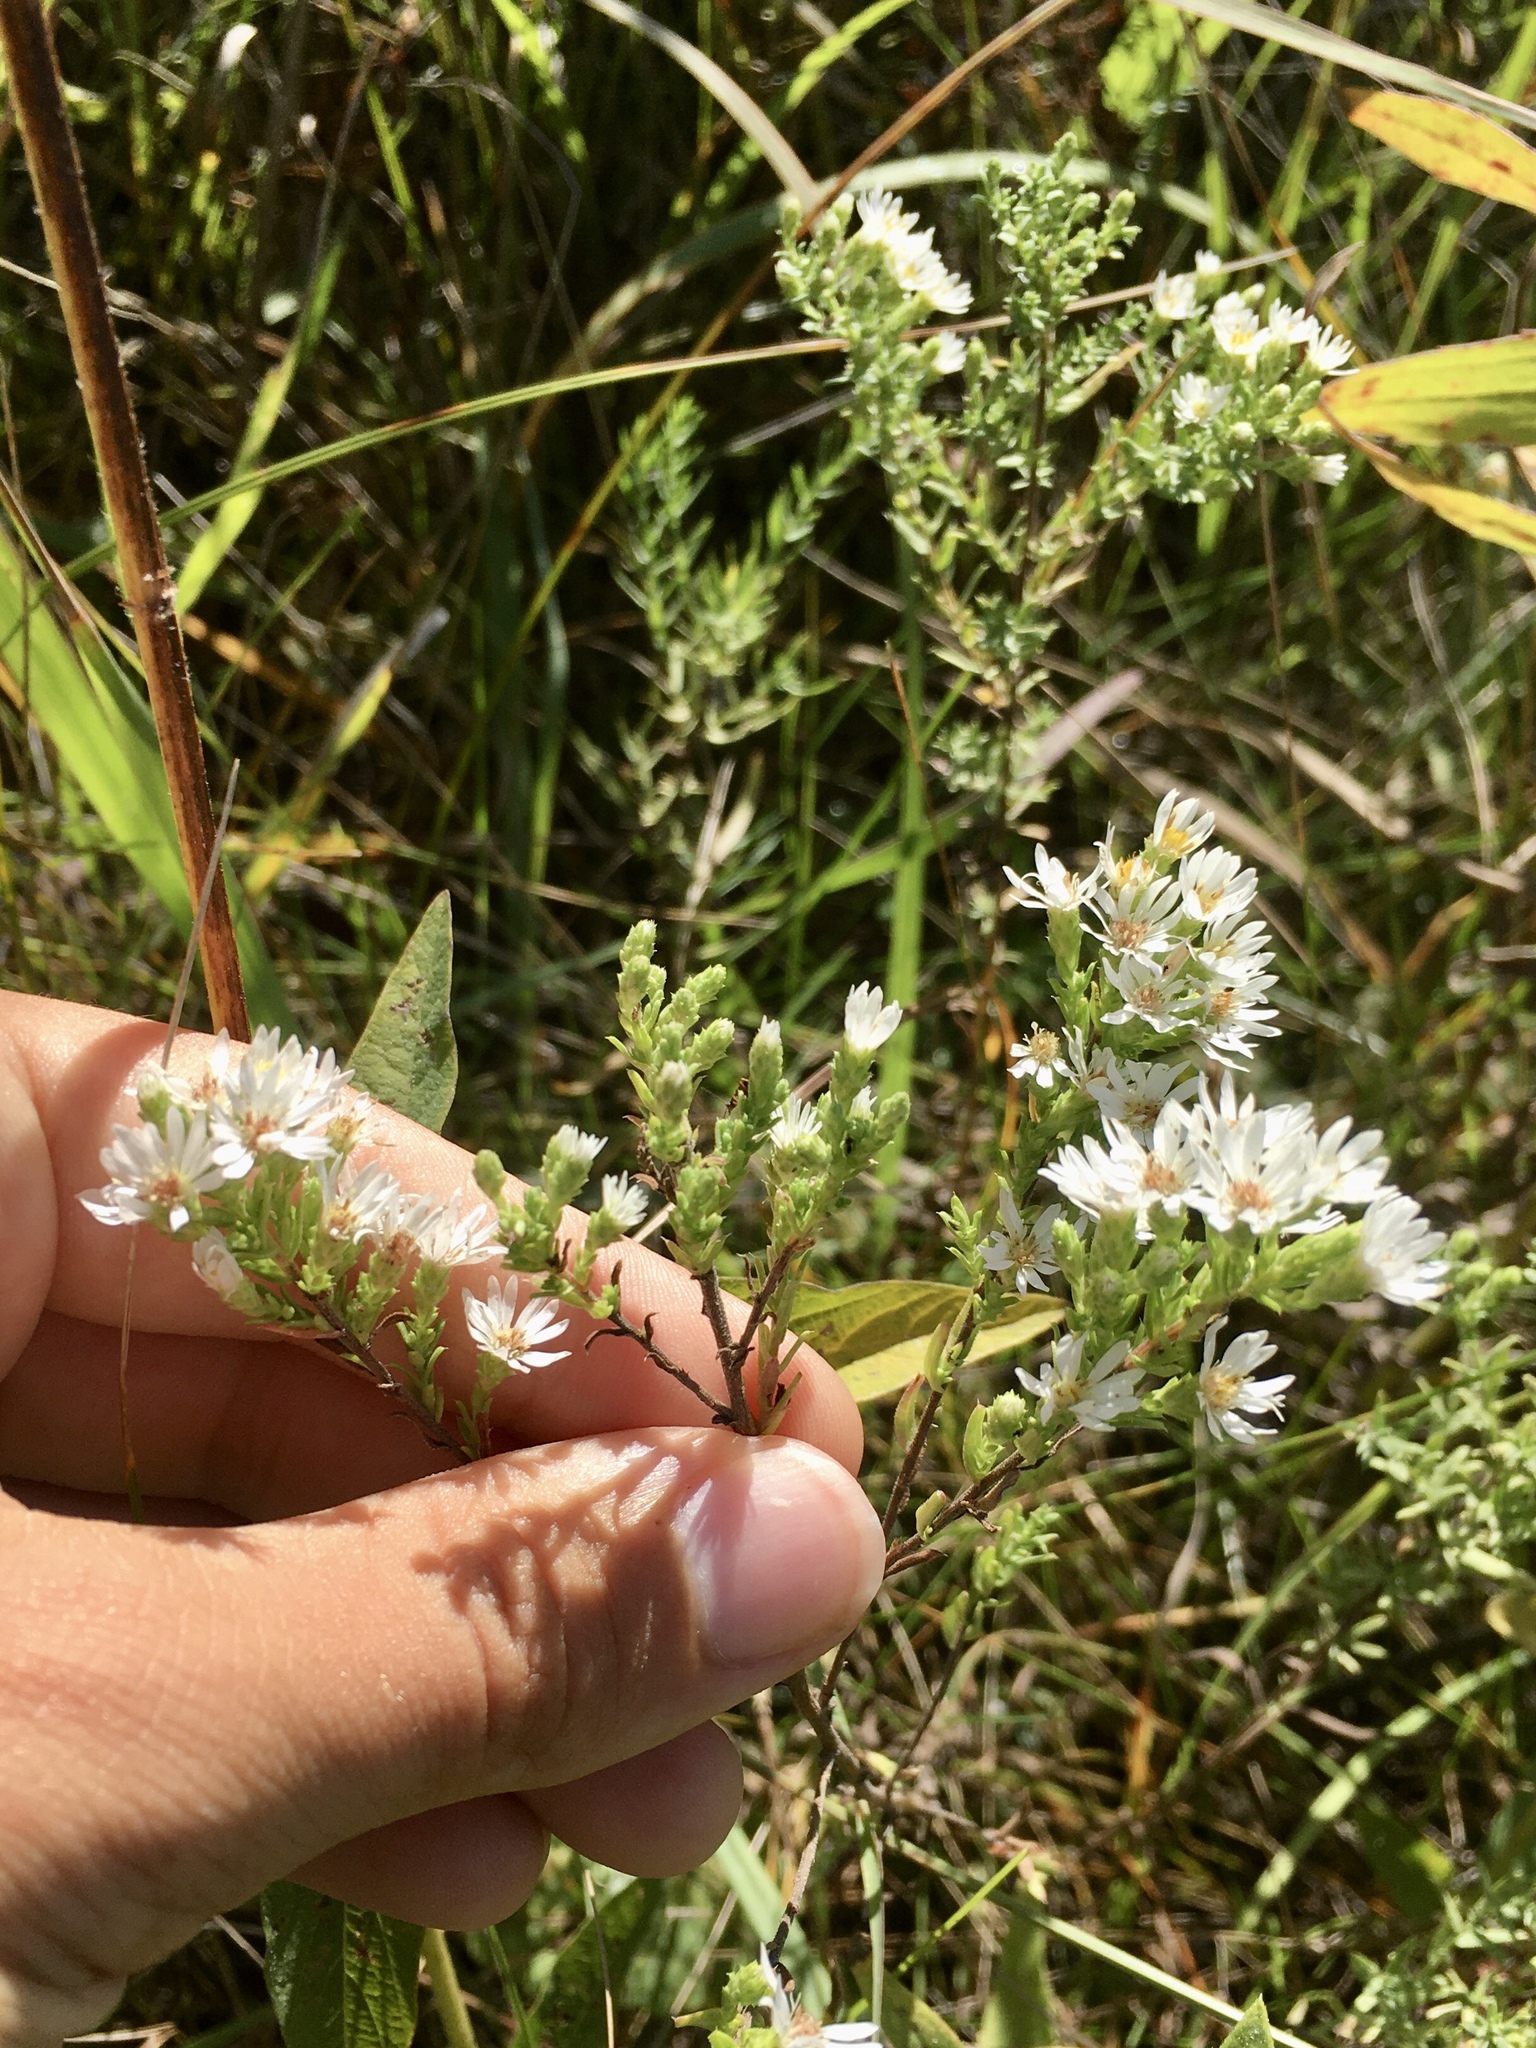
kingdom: Plantae
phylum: Tracheophyta
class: Magnoliopsida
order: Asterales
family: Asteraceae
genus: Symphyotrichum
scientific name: Symphyotrichum ericoides
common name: Heath aster
